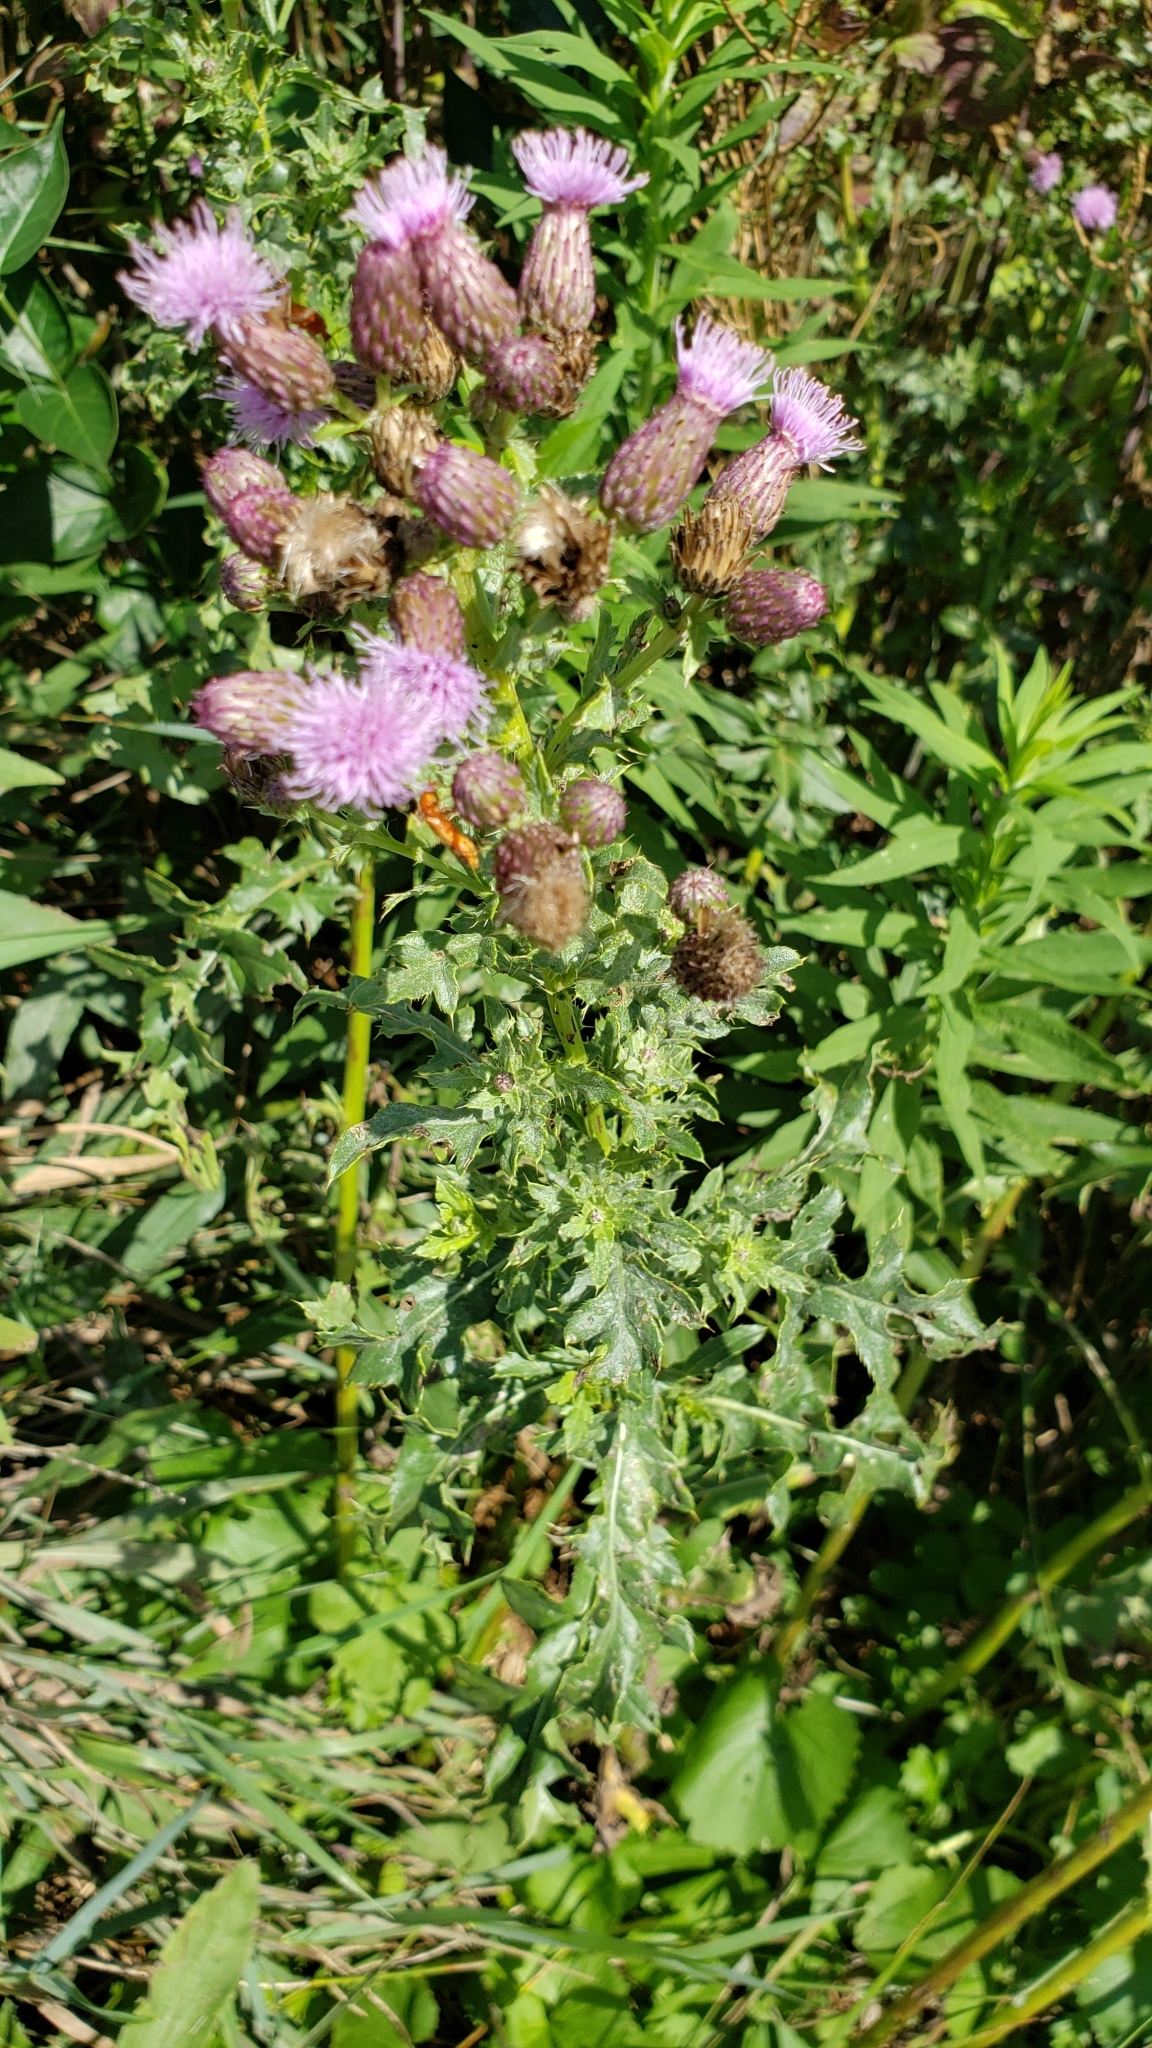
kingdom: Plantae
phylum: Tracheophyta
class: Magnoliopsida
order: Asterales
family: Asteraceae
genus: Cirsium
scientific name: Cirsium arvense
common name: Creeping thistle
